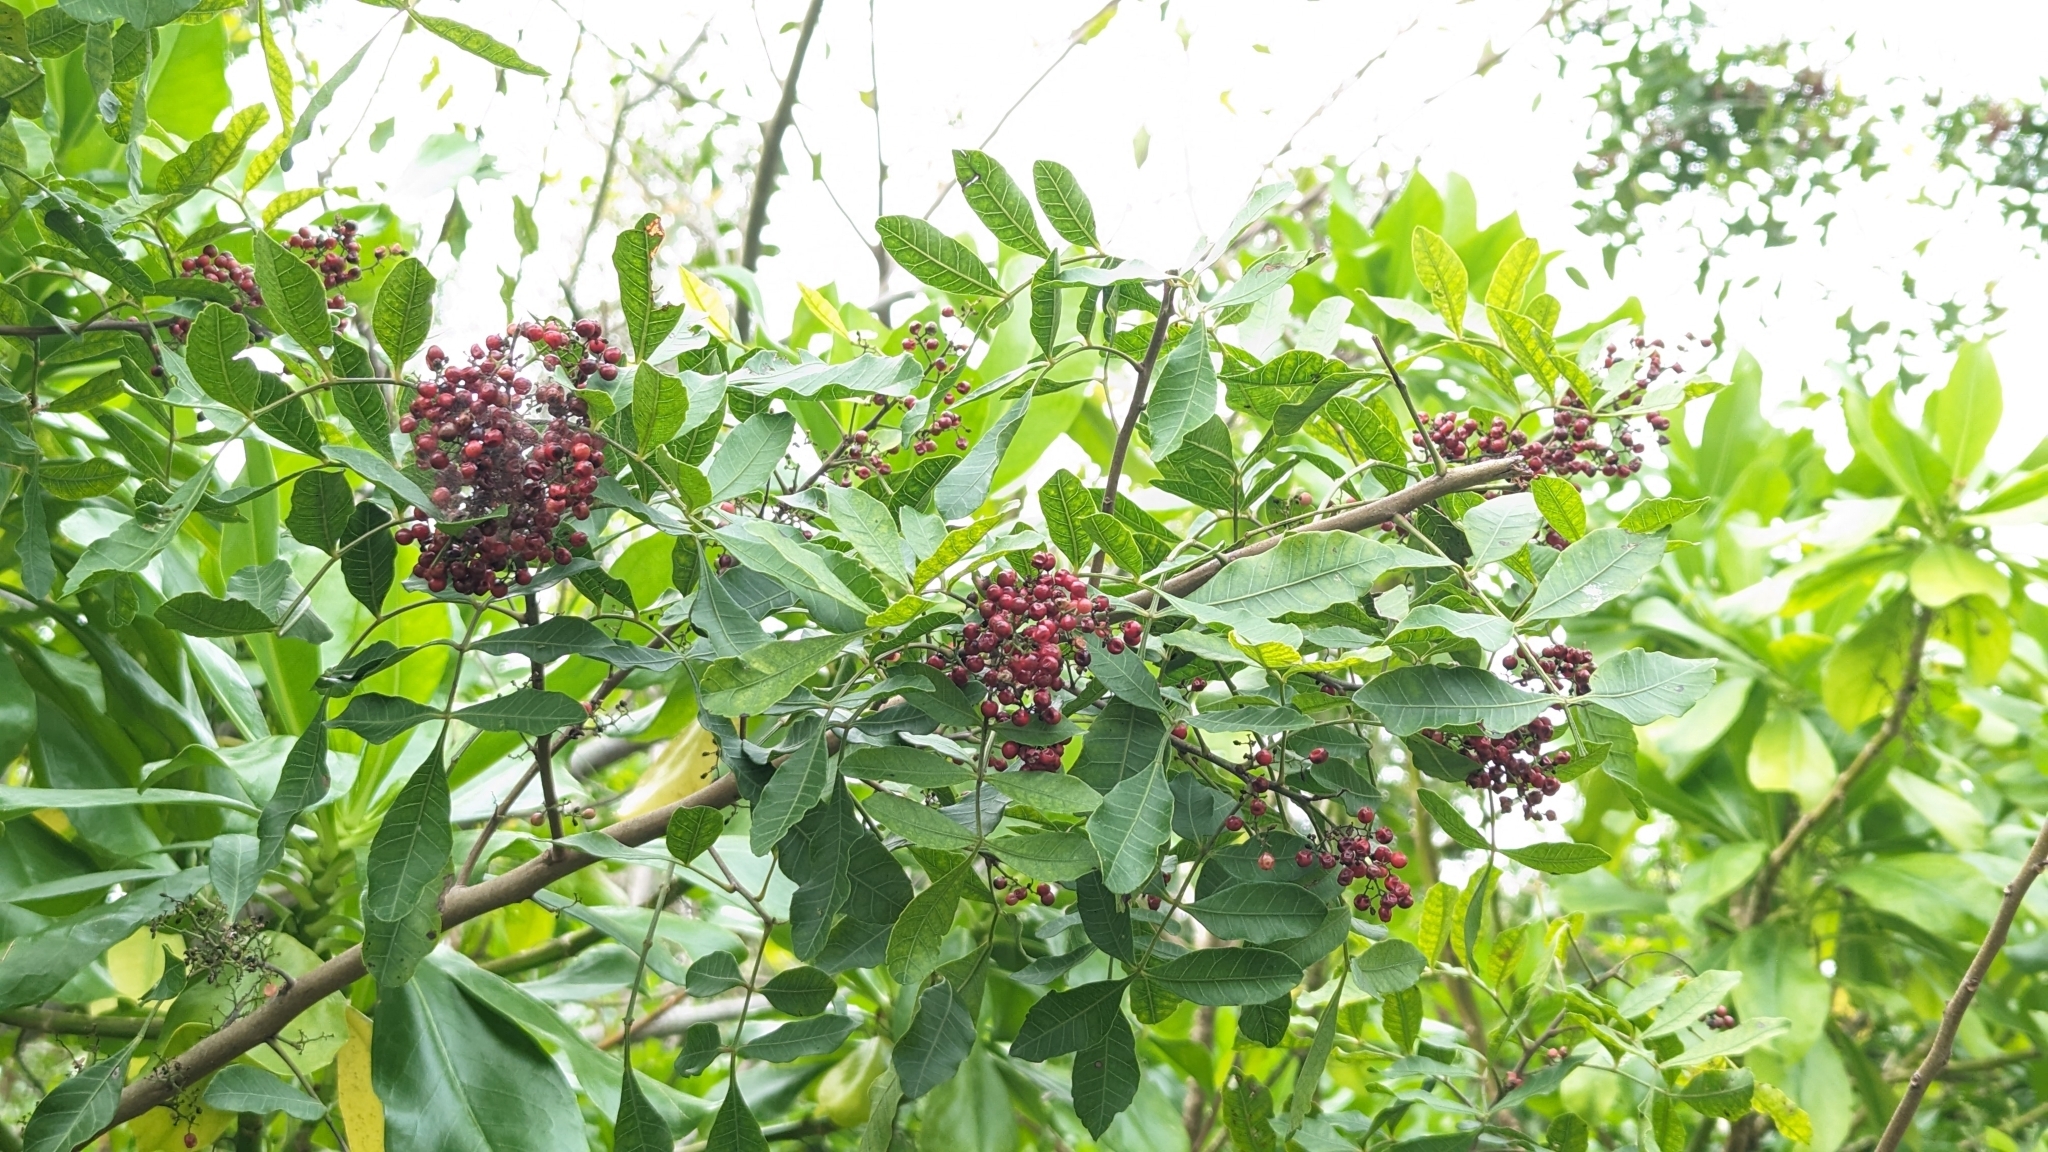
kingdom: Plantae
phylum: Tracheophyta
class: Magnoliopsida
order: Sapindales
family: Anacardiaceae
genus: Schinus
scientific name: Schinus terebinthifolia
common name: Brazilian peppertree
